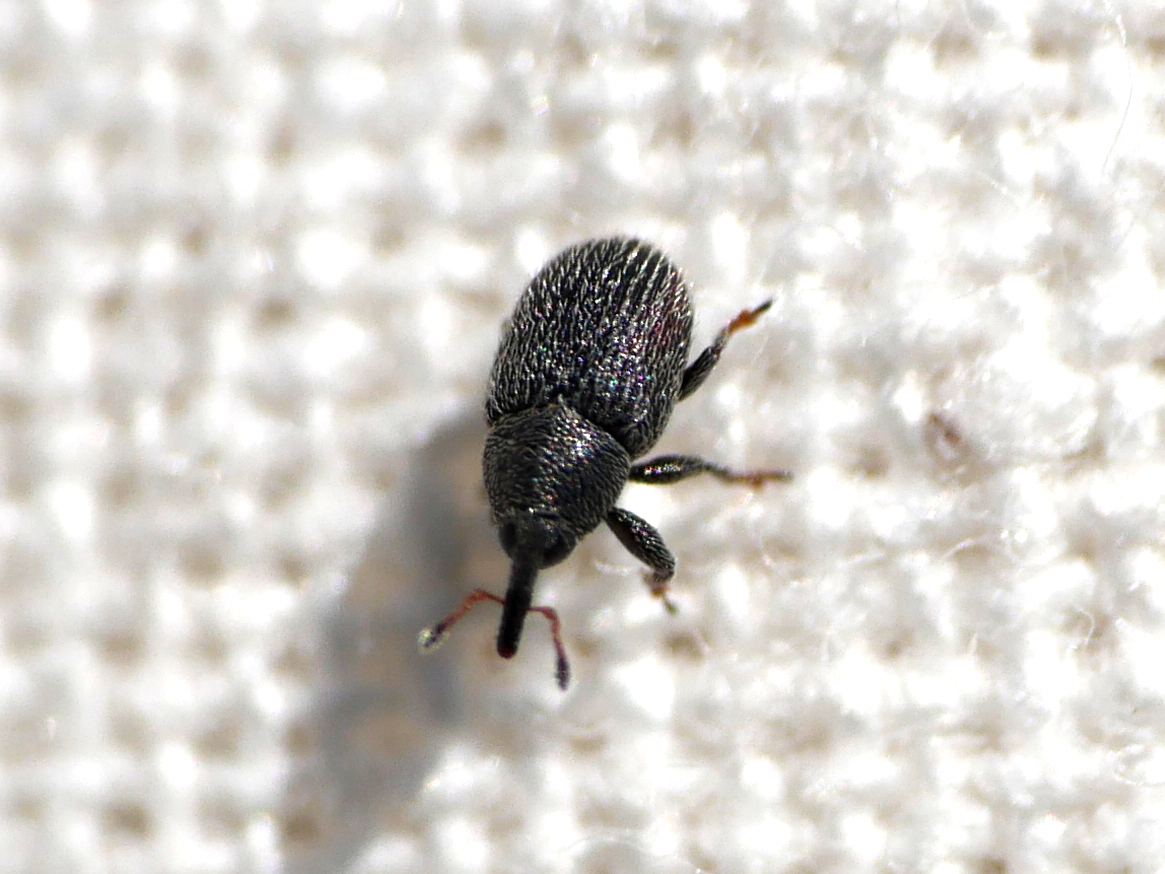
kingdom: Animalia
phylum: Arthropoda
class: Insecta
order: Coleoptera
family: Curculionidae
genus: Mecinus
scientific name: Mecinus pascuorum
